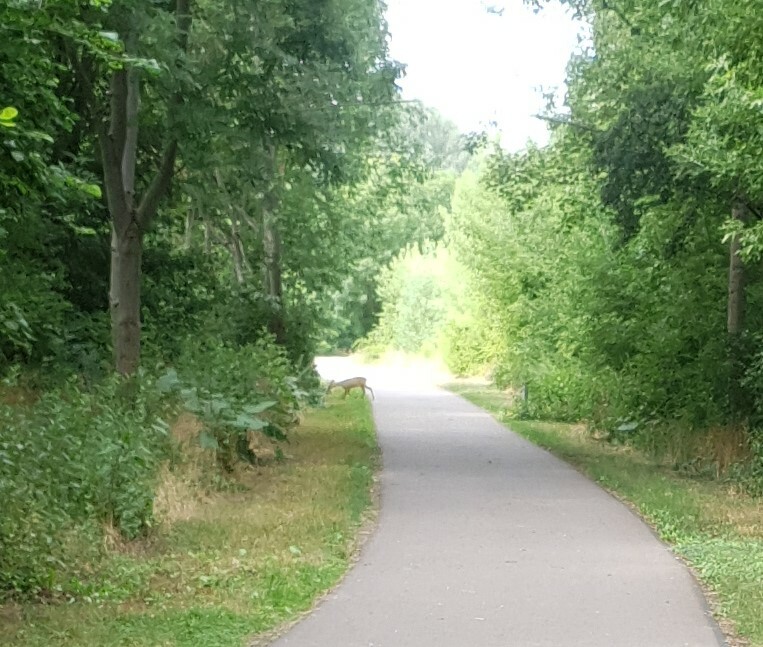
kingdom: Animalia
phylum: Chordata
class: Mammalia
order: Artiodactyla
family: Cervidae
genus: Capreolus
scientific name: Capreolus capreolus
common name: Western roe deer
